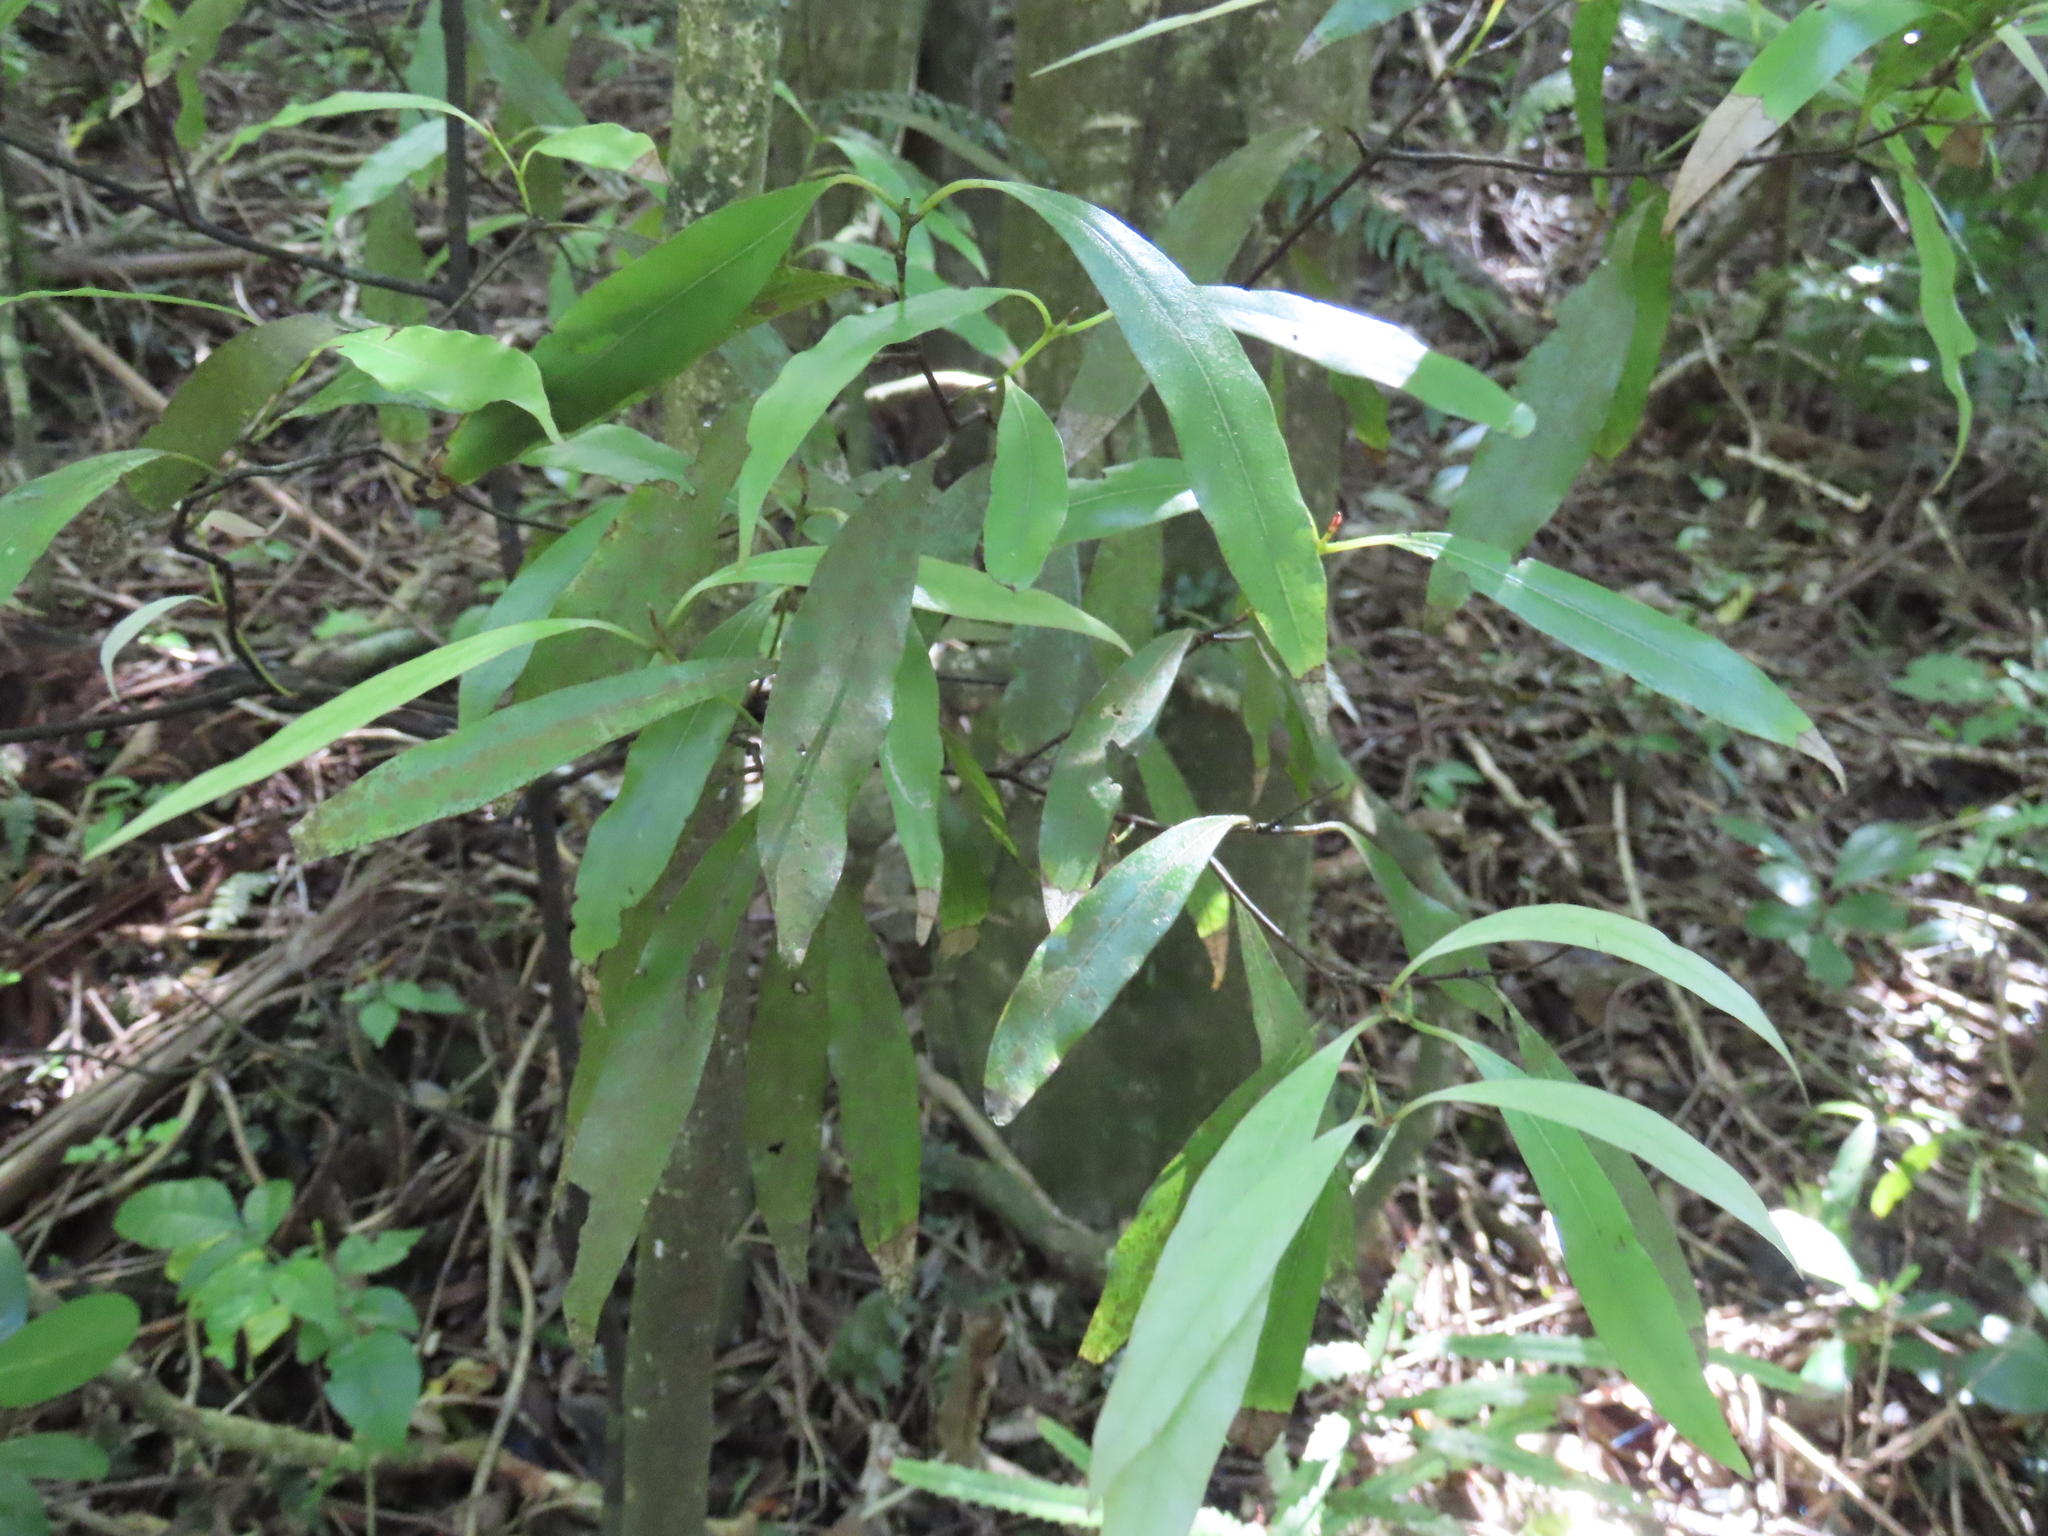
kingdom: Plantae
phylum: Tracheophyta
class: Magnoliopsida
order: Laurales
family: Lauraceae
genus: Beilschmiedia
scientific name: Beilschmiedia tawa
